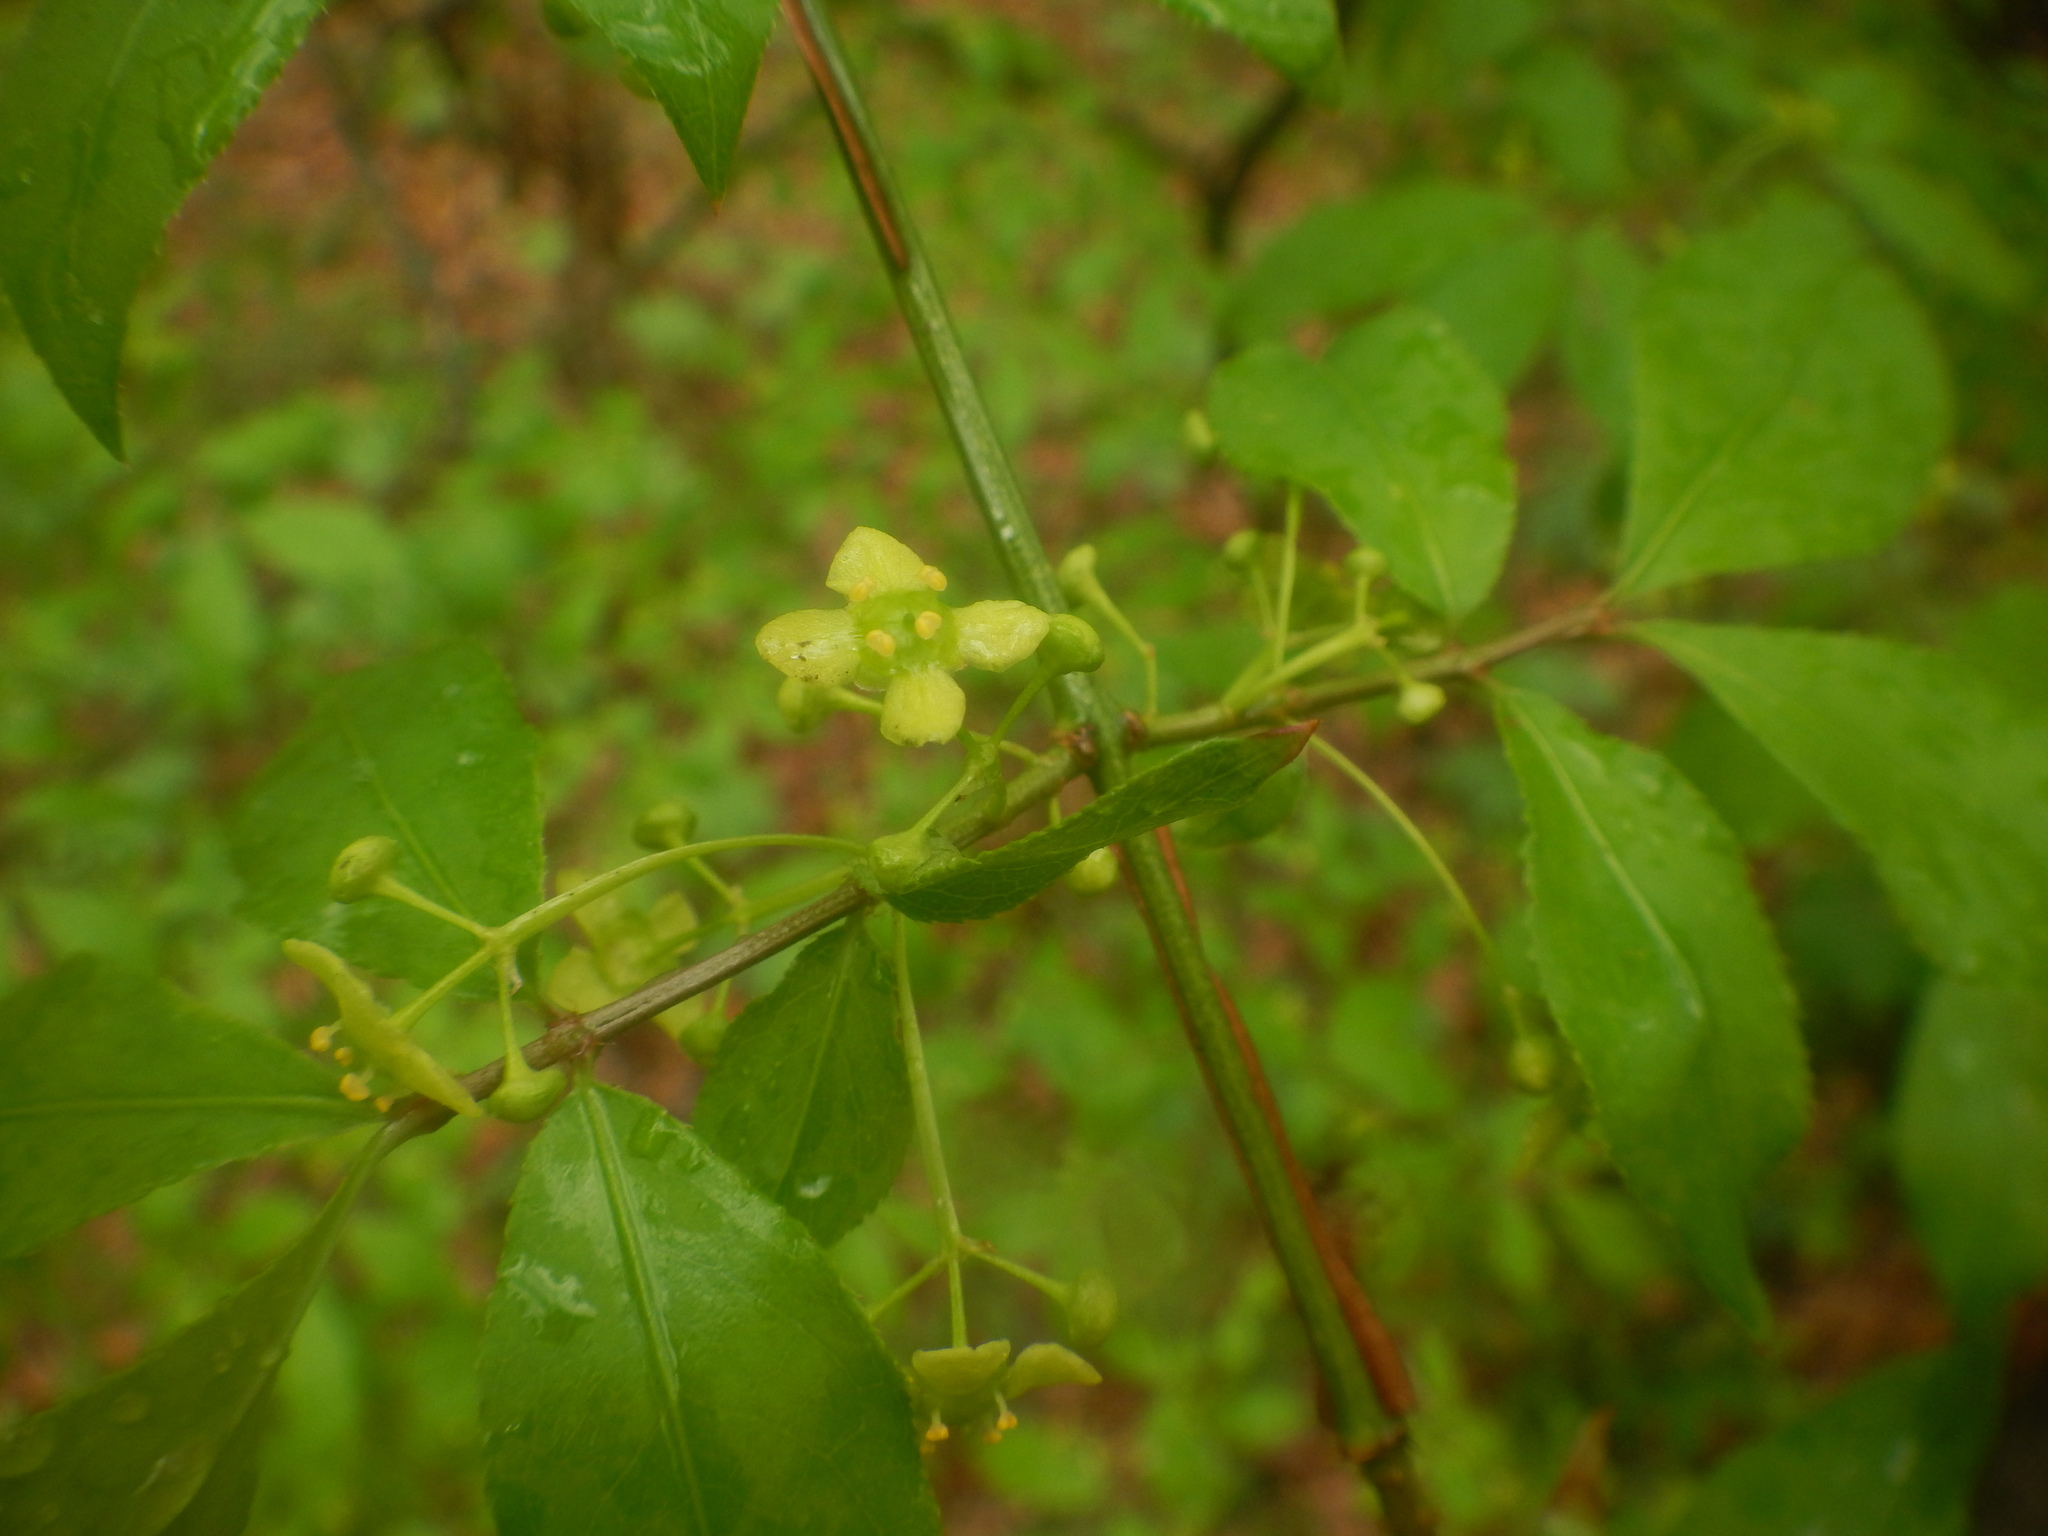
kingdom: Plantae
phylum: Tracheophyta
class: Magnoliopsida
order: Celastrales
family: Celastraceae
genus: Euonymus
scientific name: Euonymus alatus
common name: Winged euonymus
